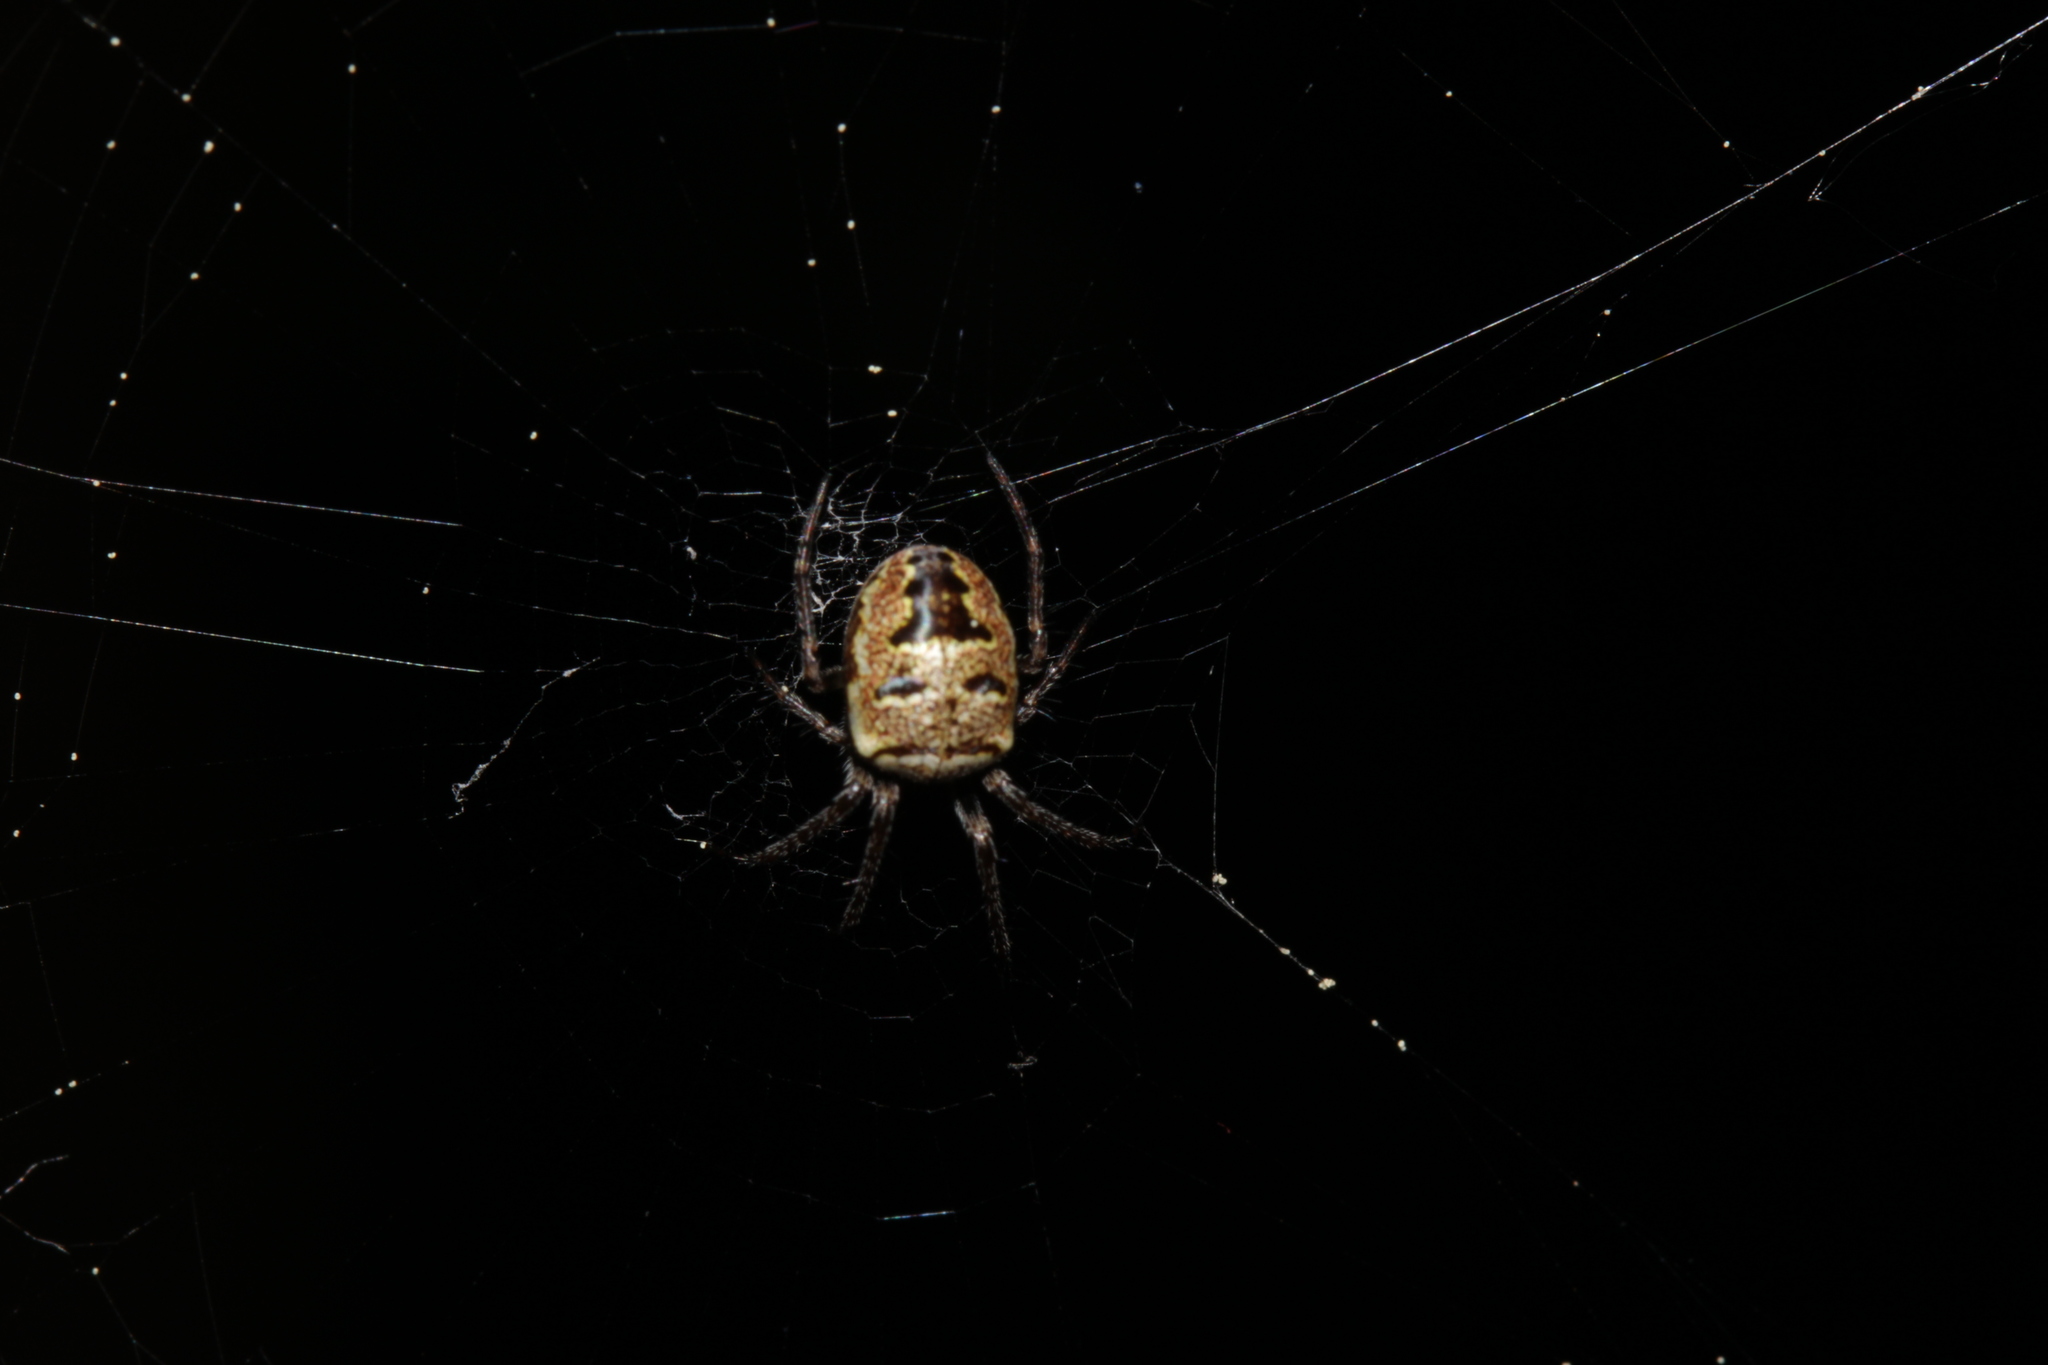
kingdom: Animalia
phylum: Arthropoda
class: Arachnida
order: Araneae
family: Araneidae
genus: Zilla
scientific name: Zilla diodia
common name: Zilla diodia
